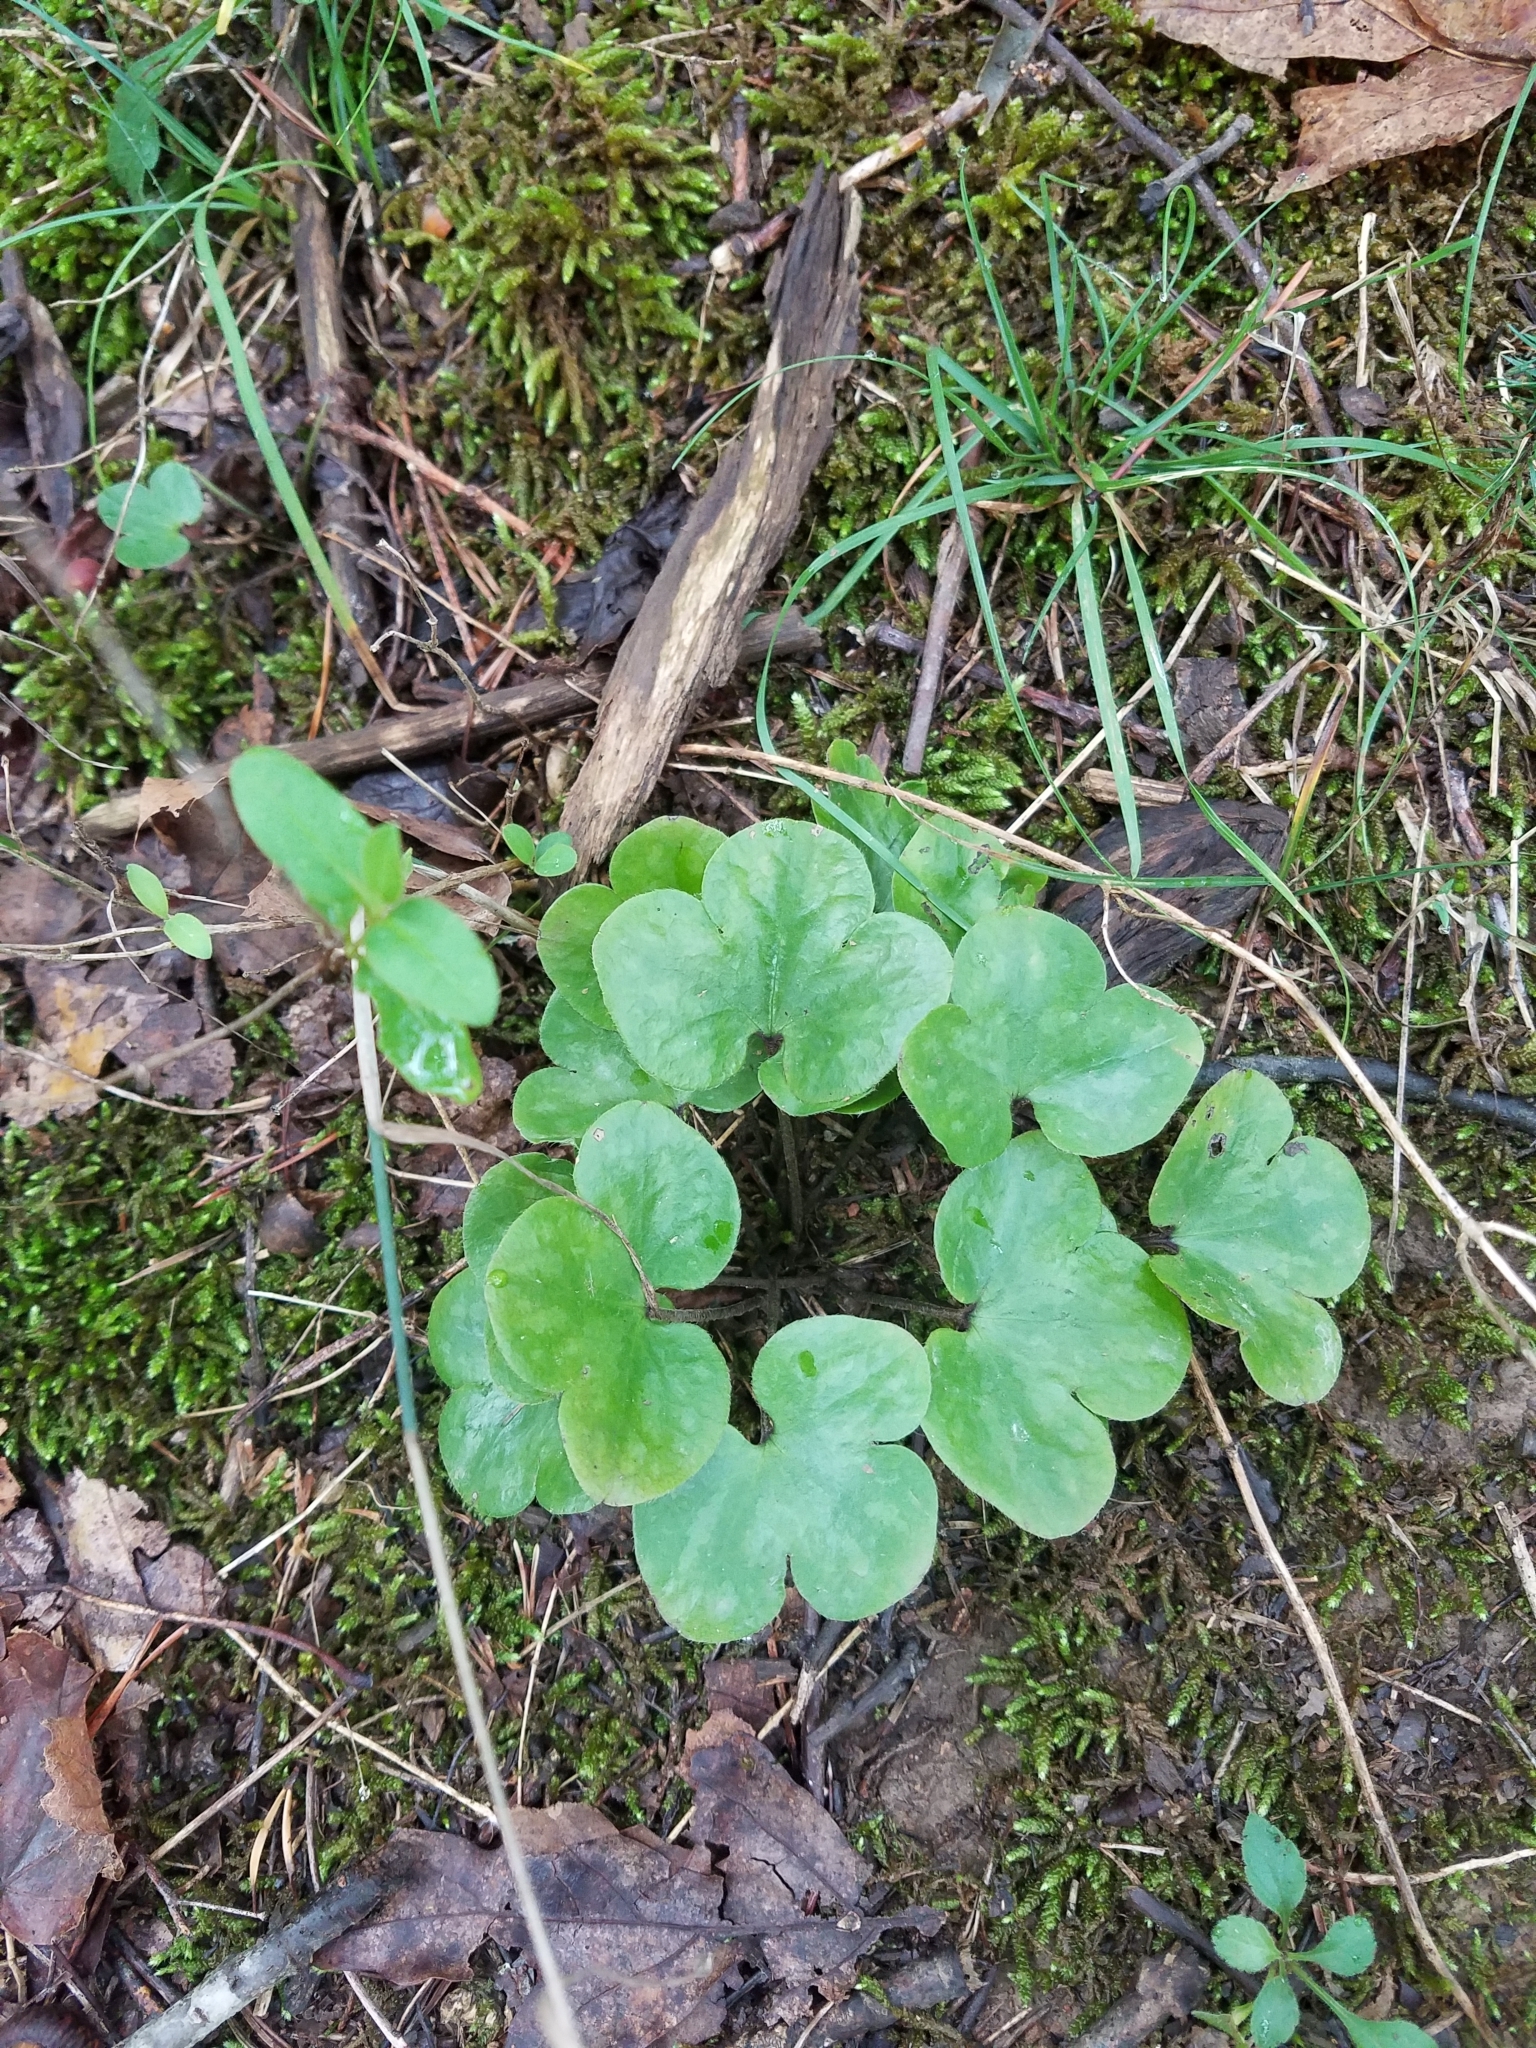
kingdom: Plantae
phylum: Tracheophyta
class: Magnoliopsida
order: Ranunculales
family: Ranunculaceae
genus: Hepatica
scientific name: Hepatica americana
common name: American hepatica
